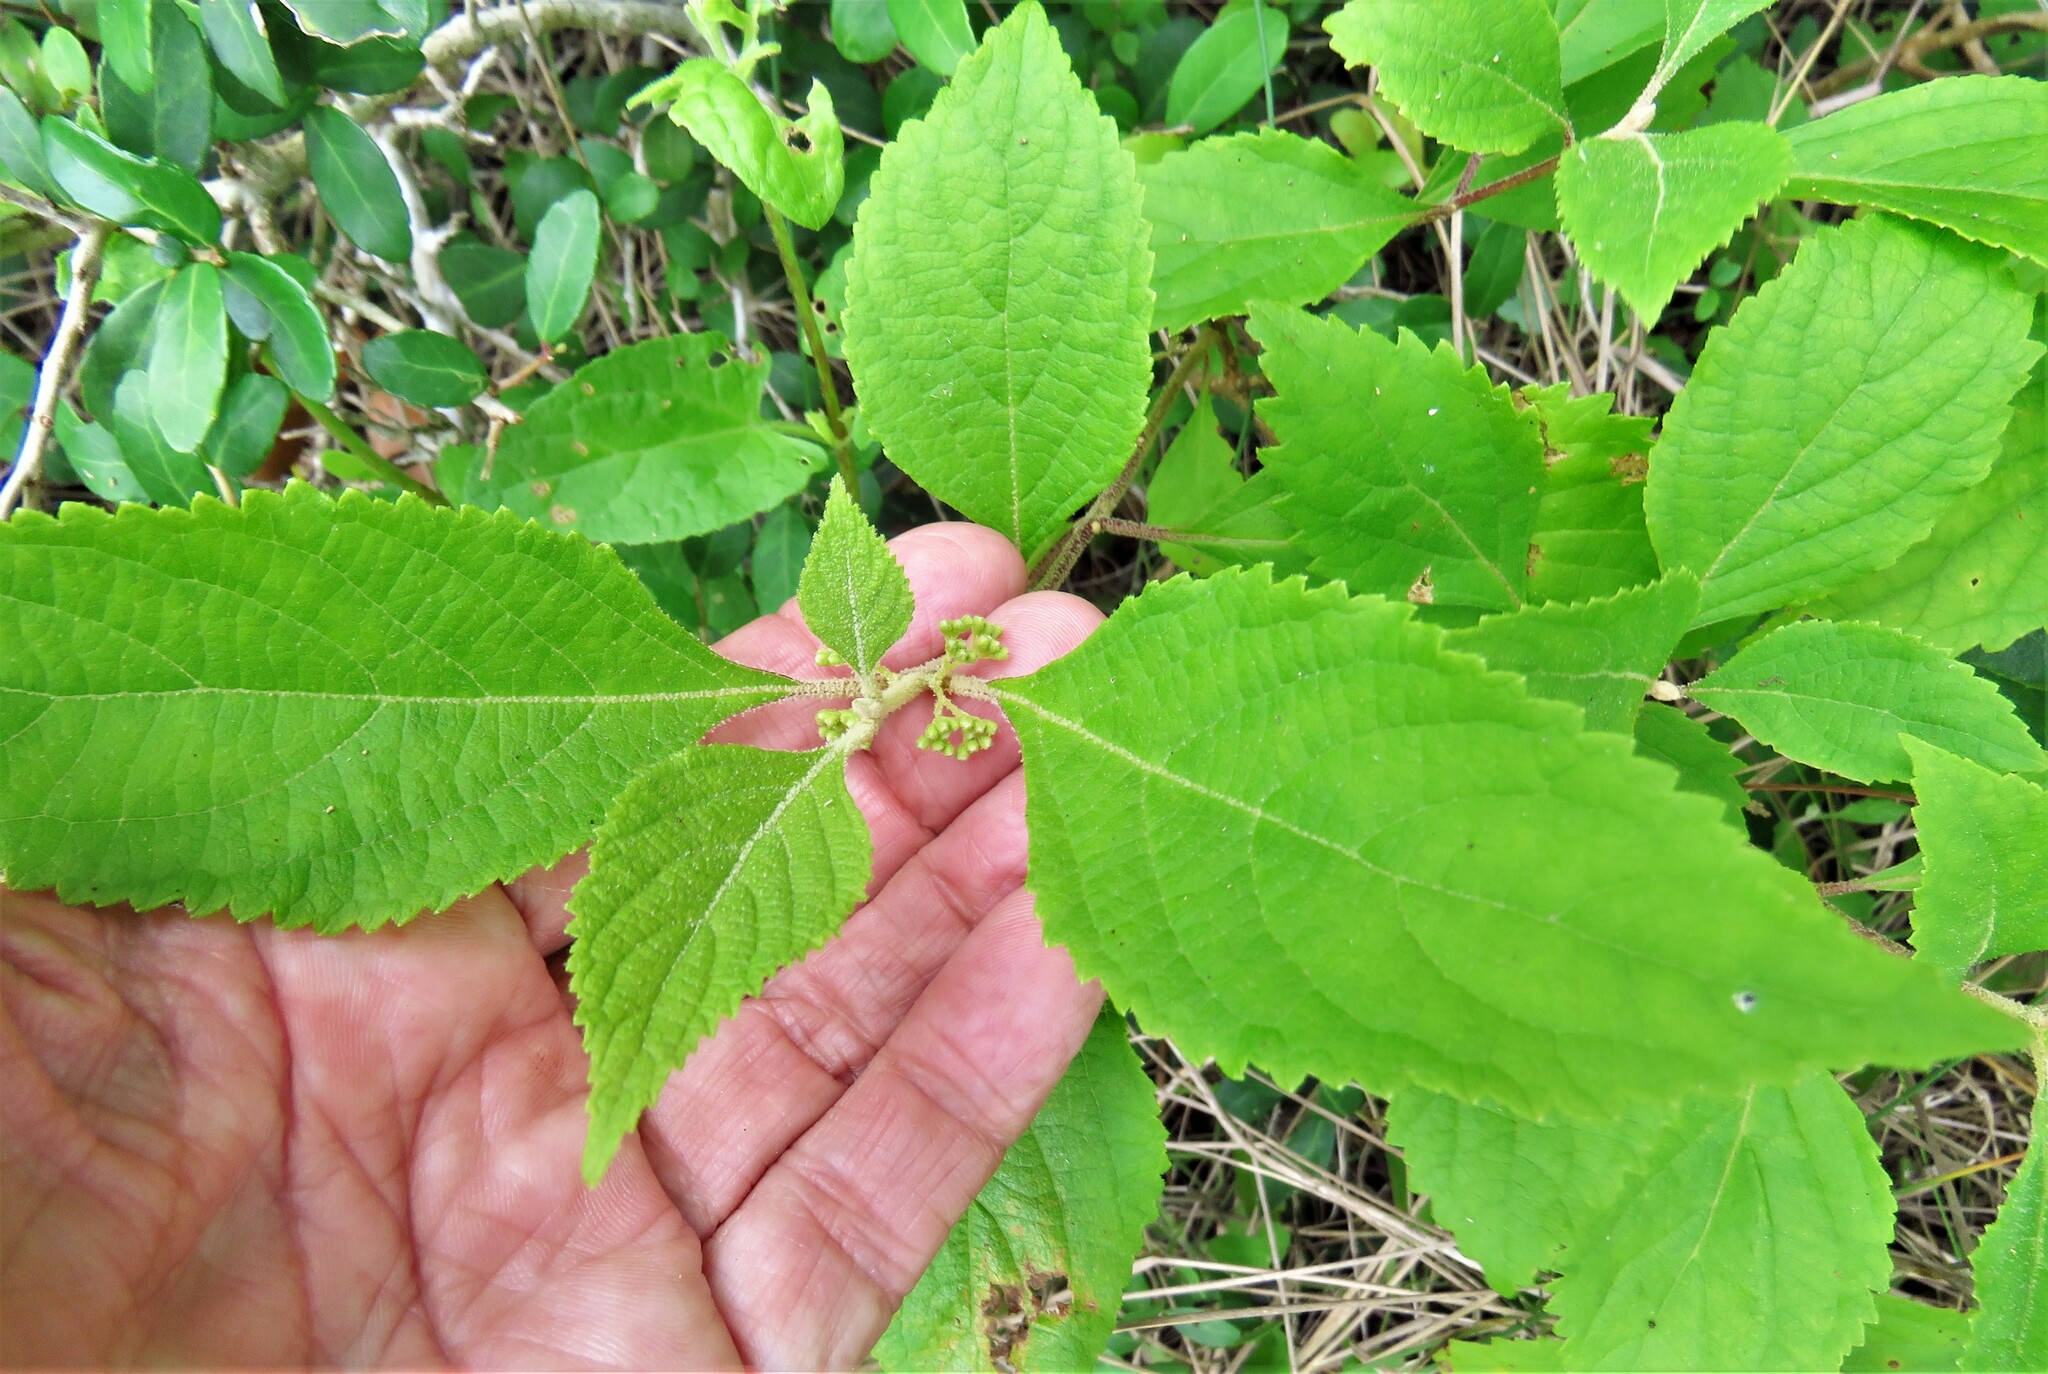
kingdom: Plantae
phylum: Tracheophyta
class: Magnoliopsida
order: Lamiales
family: Lamiaceae
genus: Callicarpa
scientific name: Callicarpa americana
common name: American beautyberry
